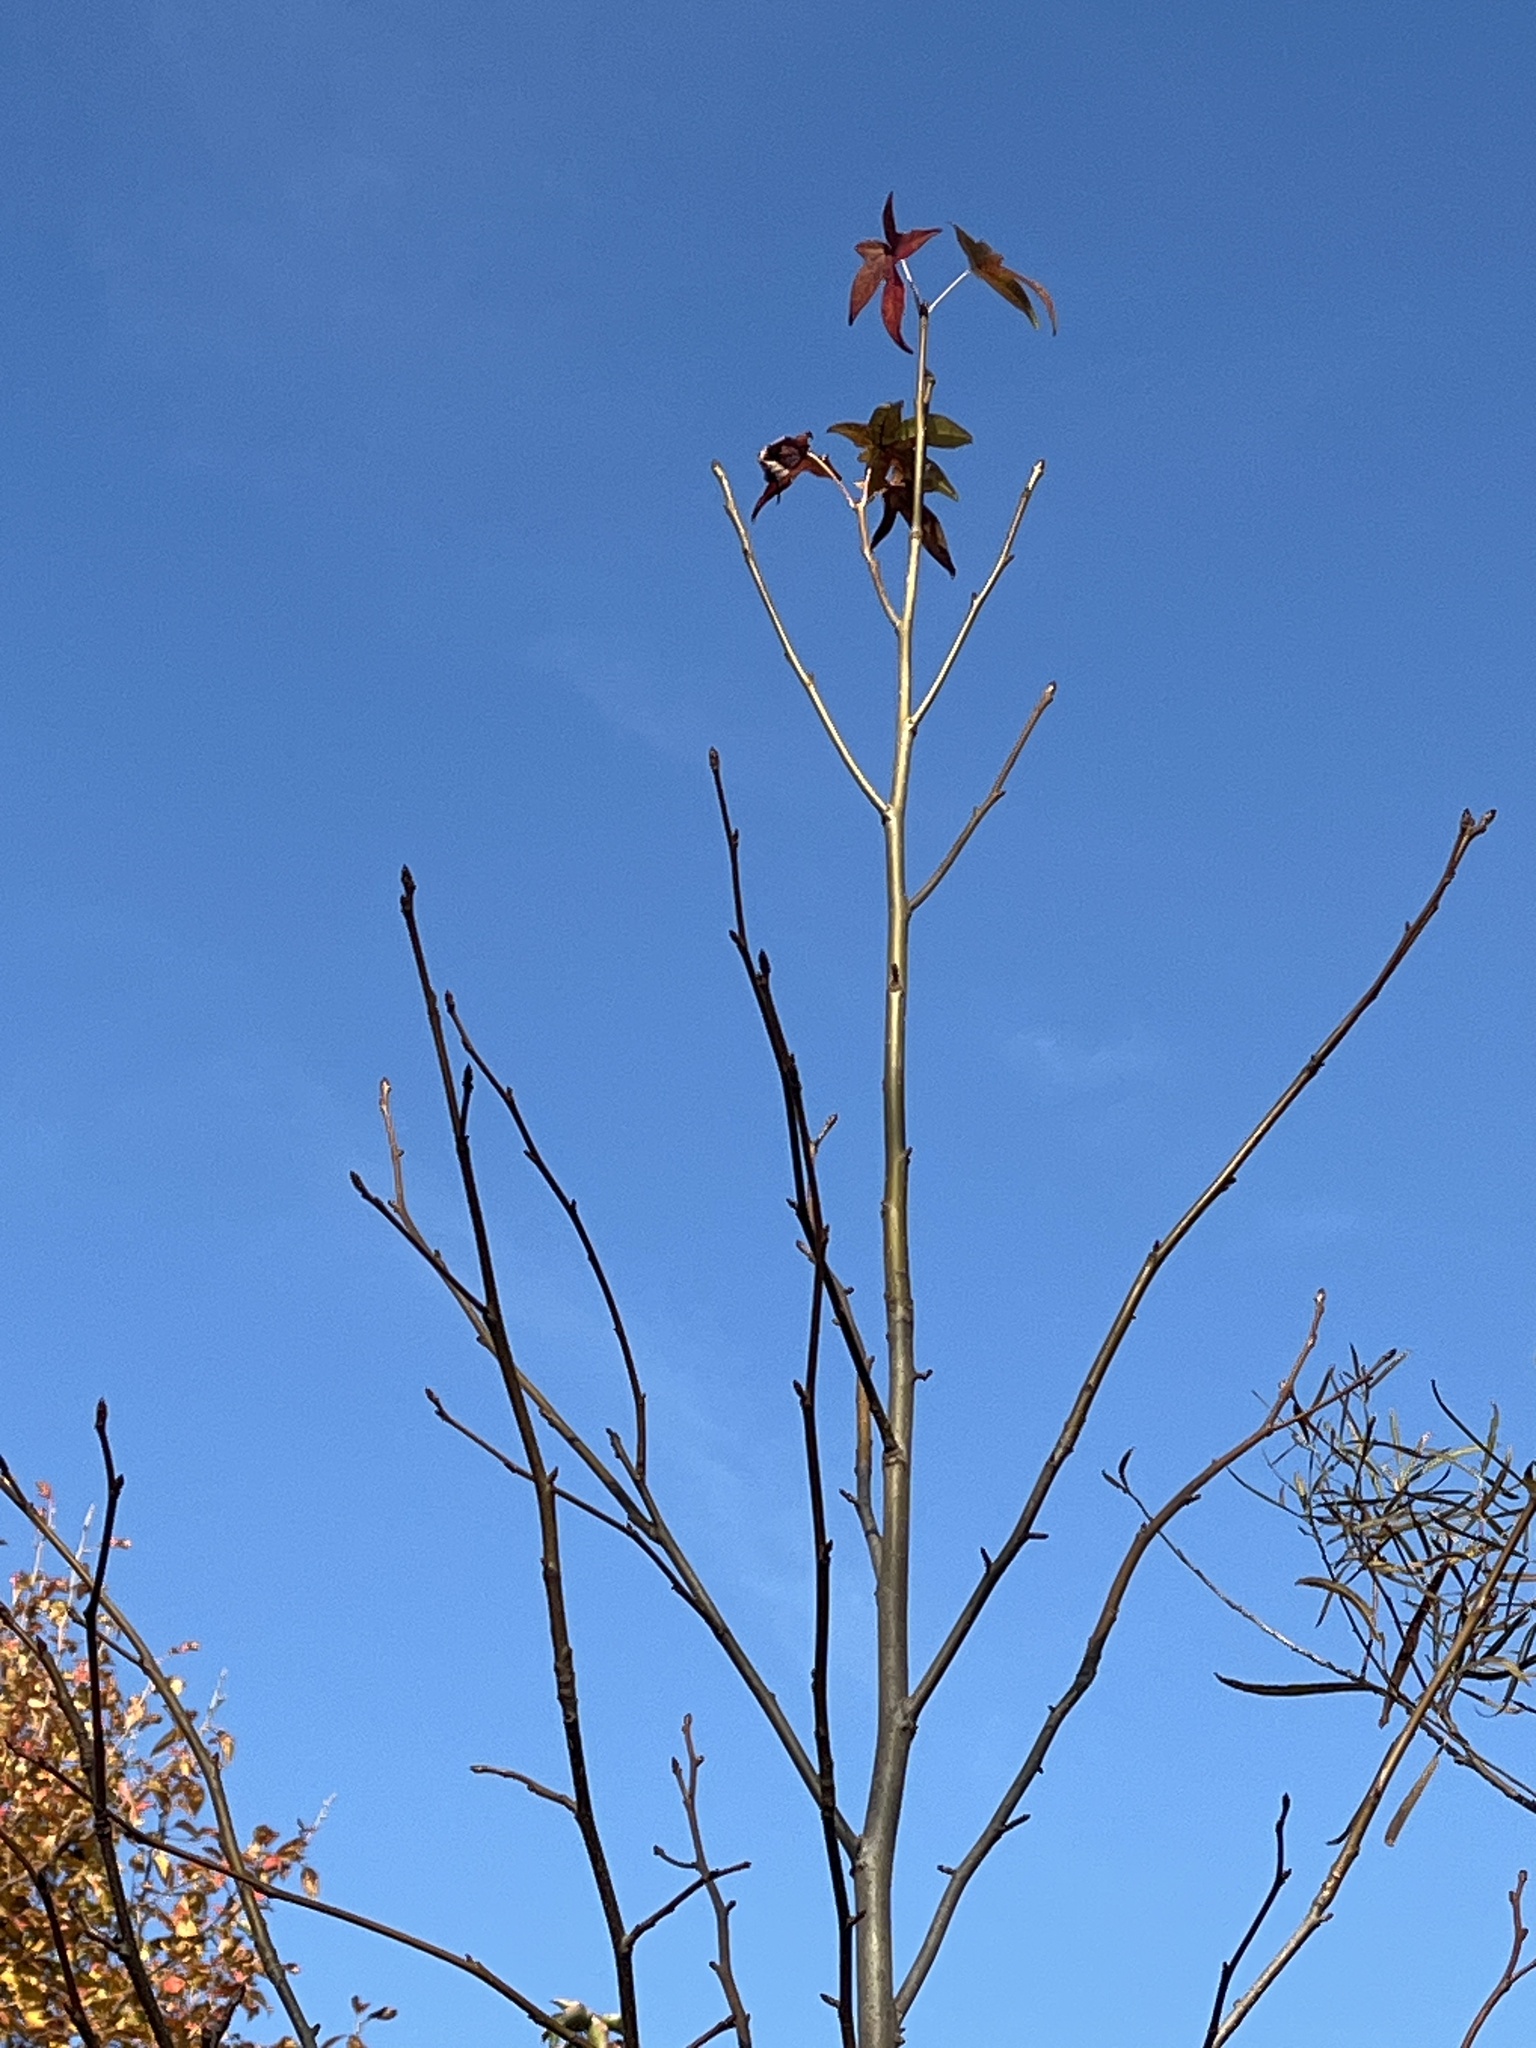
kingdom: Plantae
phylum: Tracheophyta
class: Magnoliopsida
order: Saxifragales
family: Altingiaceae
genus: Liquidambar
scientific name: Liquidambar styraciflua
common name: Sweet gum
